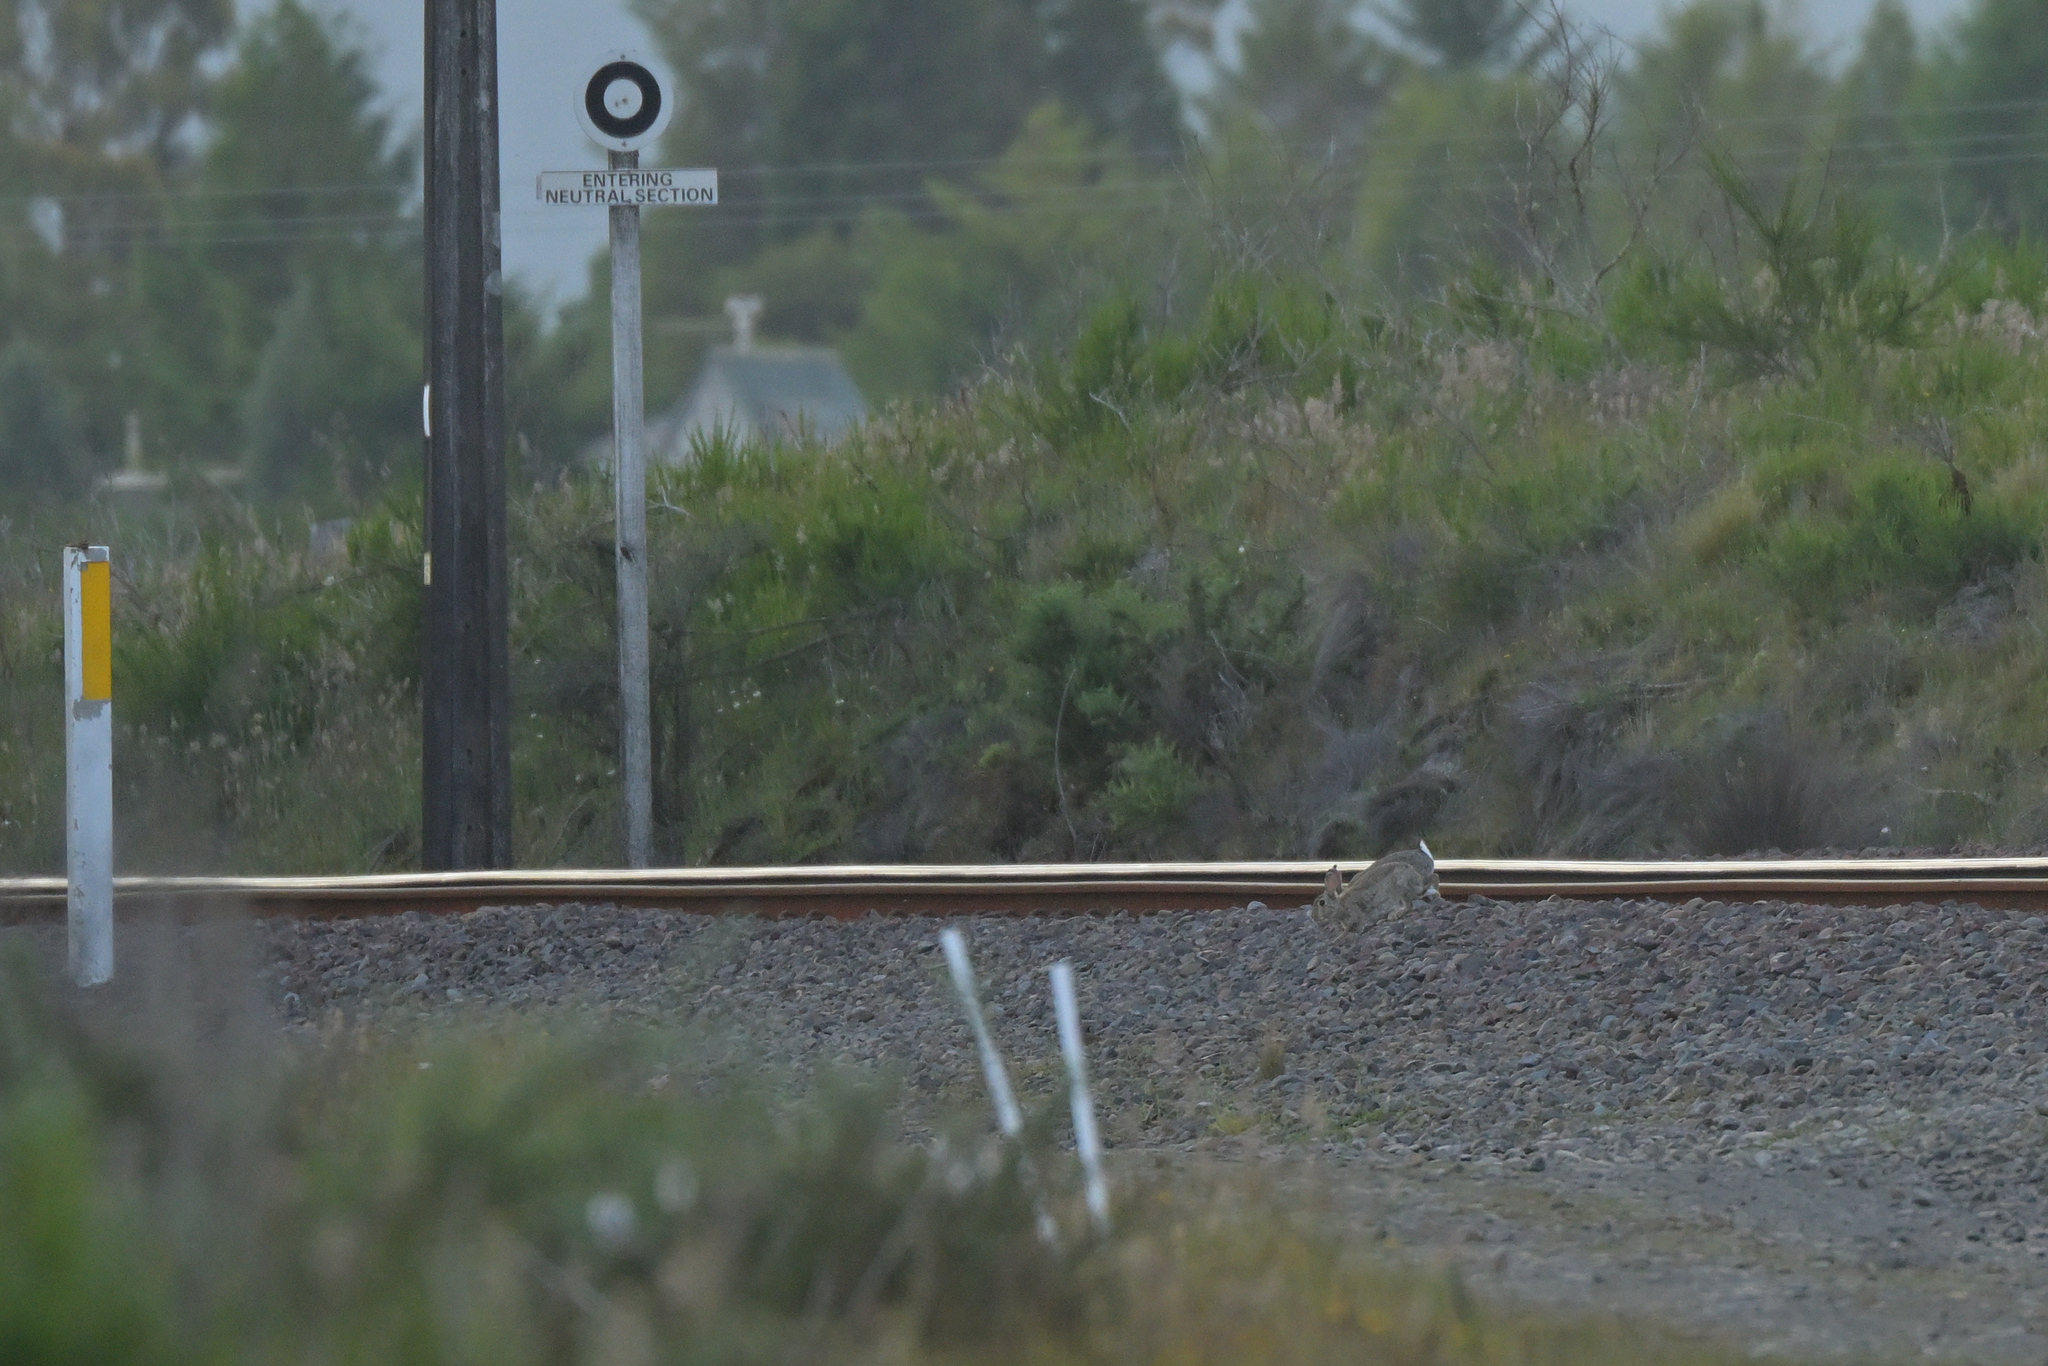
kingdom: Animalia
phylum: Chordata
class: Mammalia
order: Lagomorpha
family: Leporidae
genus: Oryctolagus
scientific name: Oryctolagus cuniculus
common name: European rabbit
